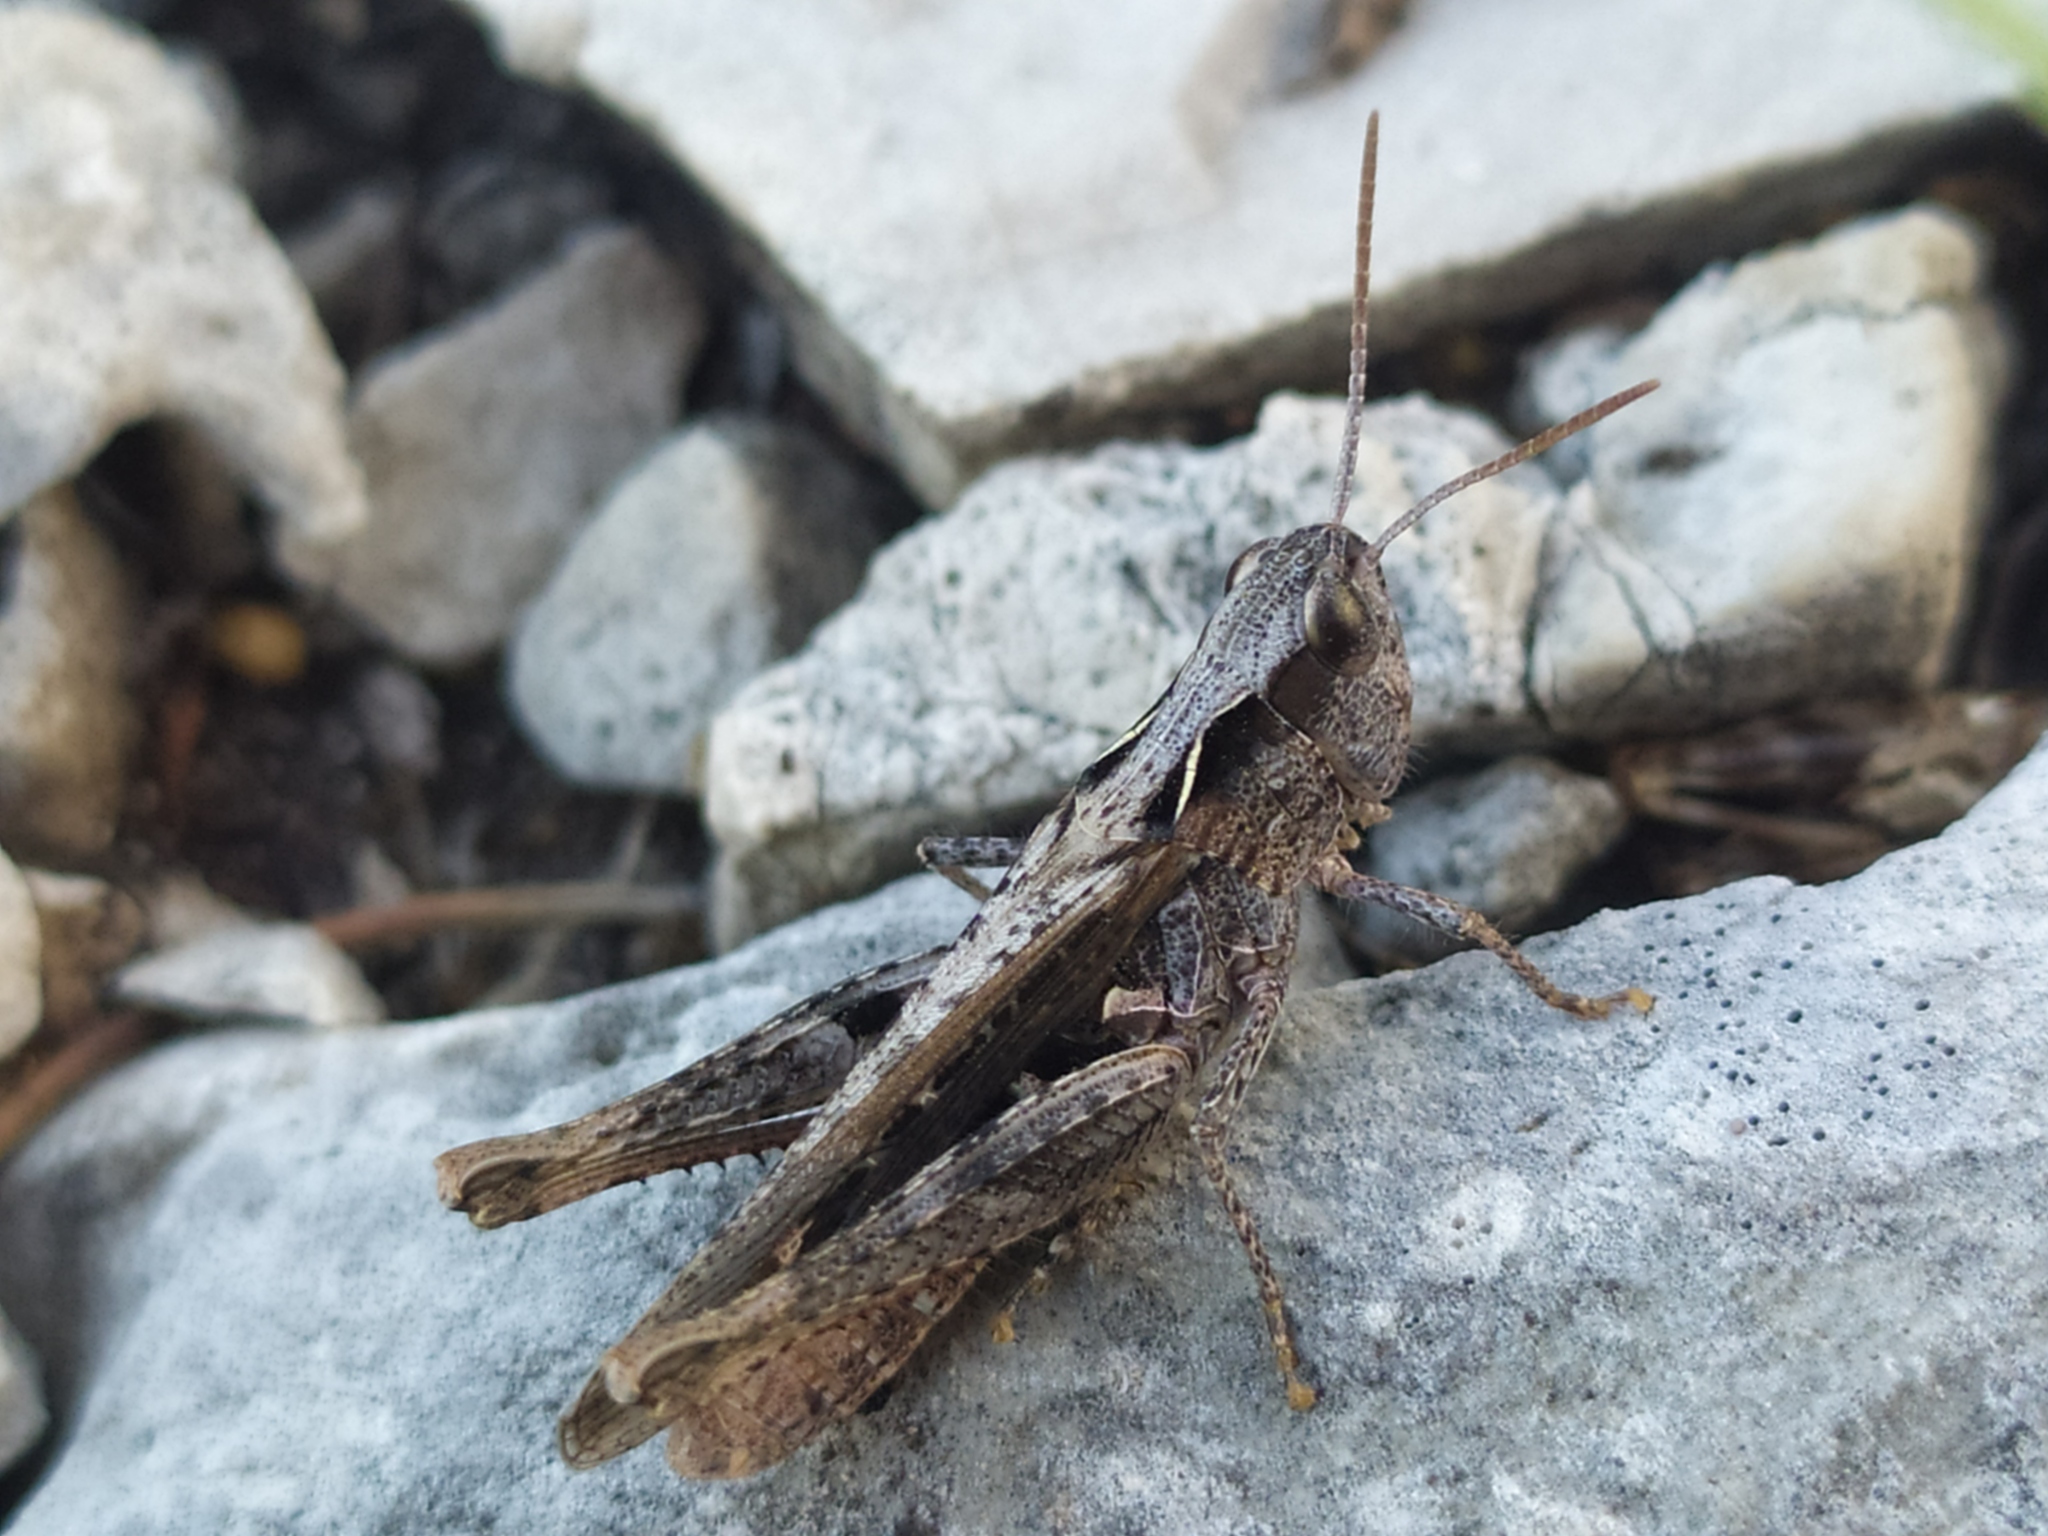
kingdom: Animalia
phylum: Arthropoda
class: Insecta
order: Orthoptera
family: Acrididae
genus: Chorthippus
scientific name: Chorthippus mollis
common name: Lesser field grasshopper
